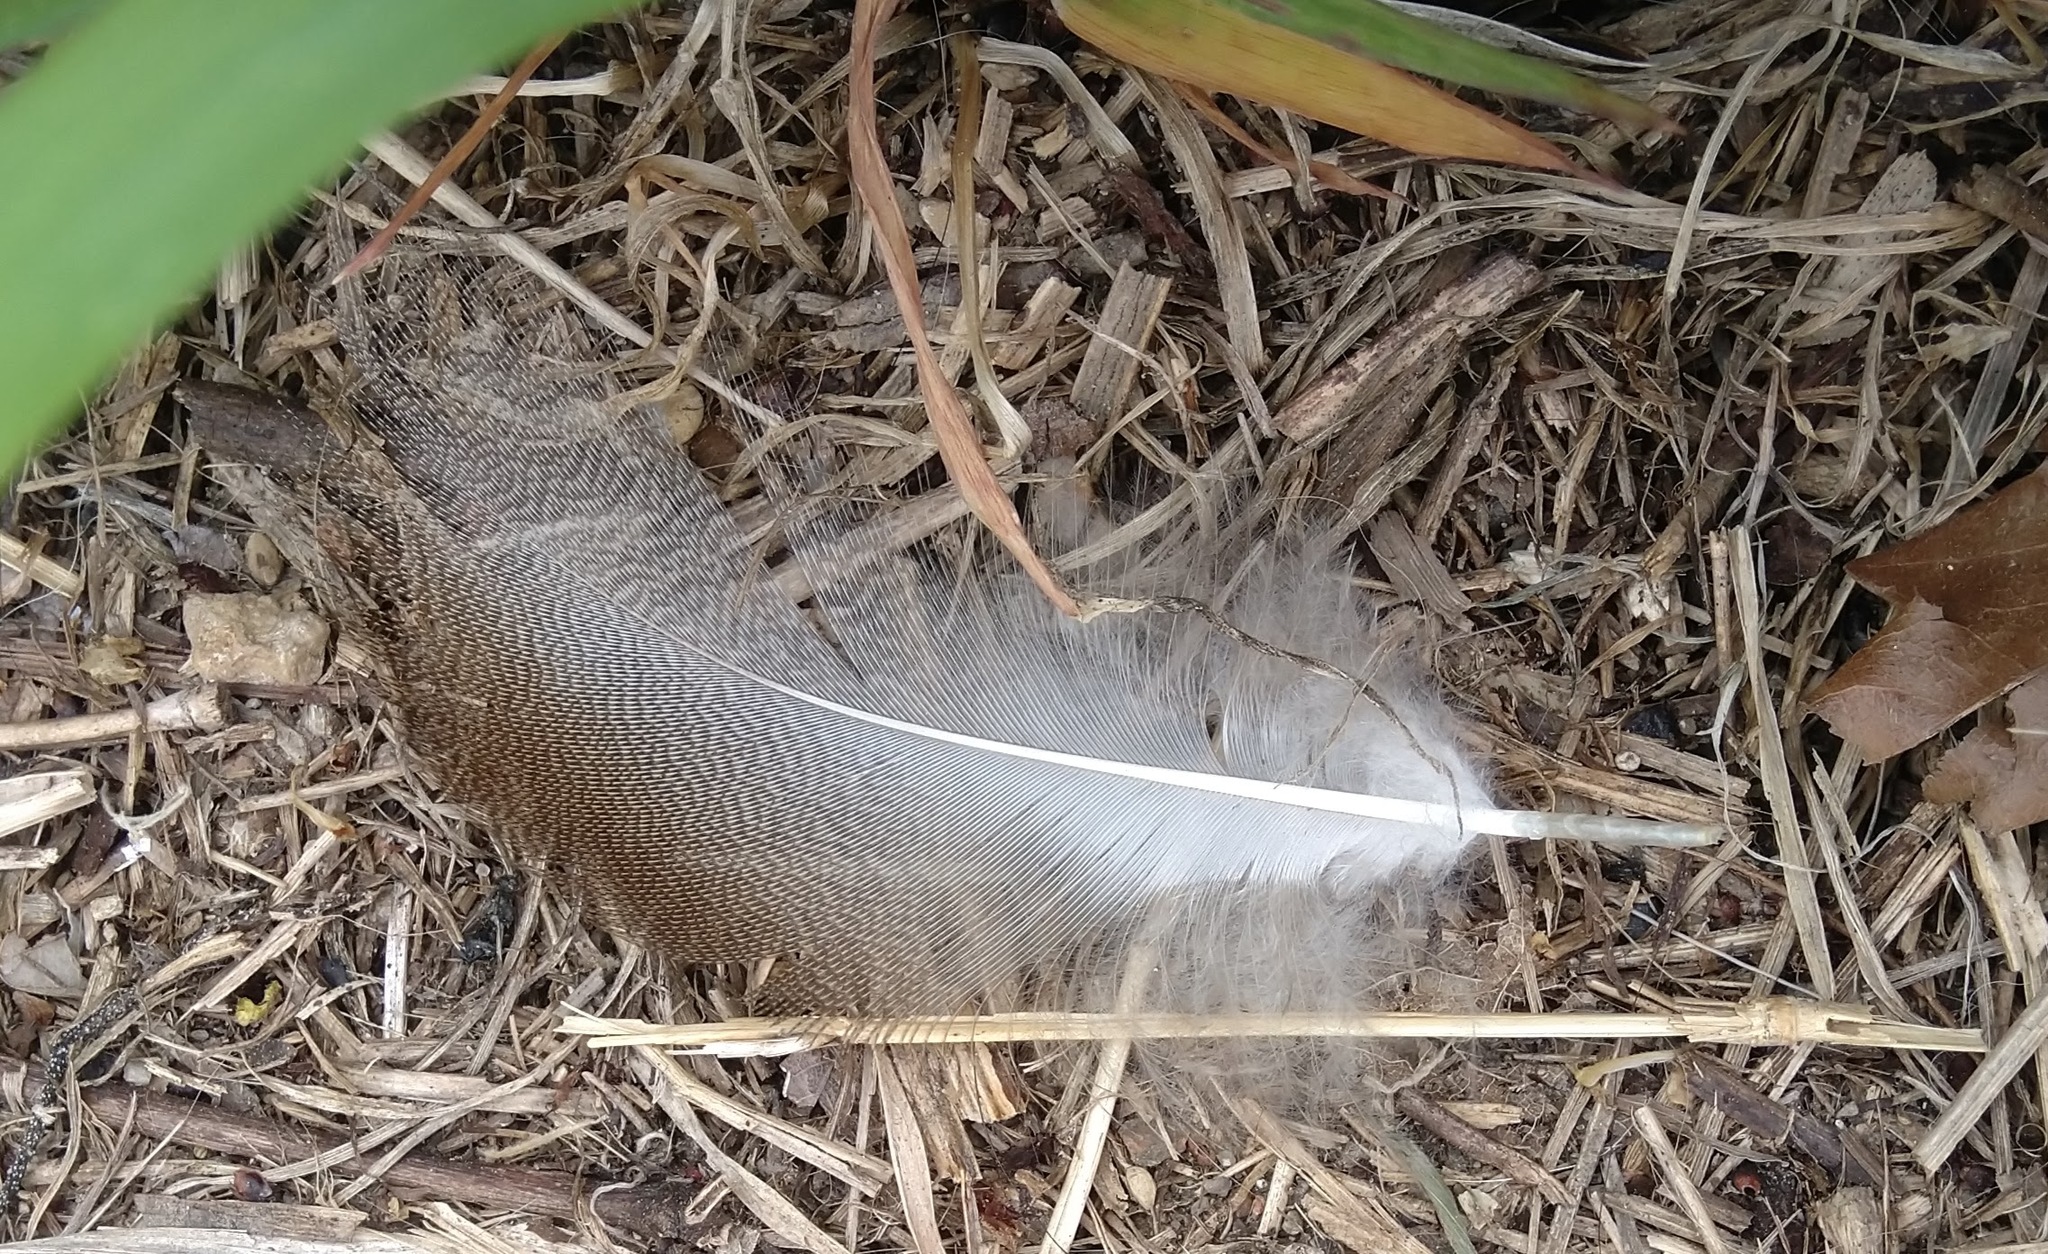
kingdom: Animalia
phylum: Chordata
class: Aves
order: Anseriformes
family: Anatidae
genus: Anas
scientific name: Anas platyrhynchos
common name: Mallard
